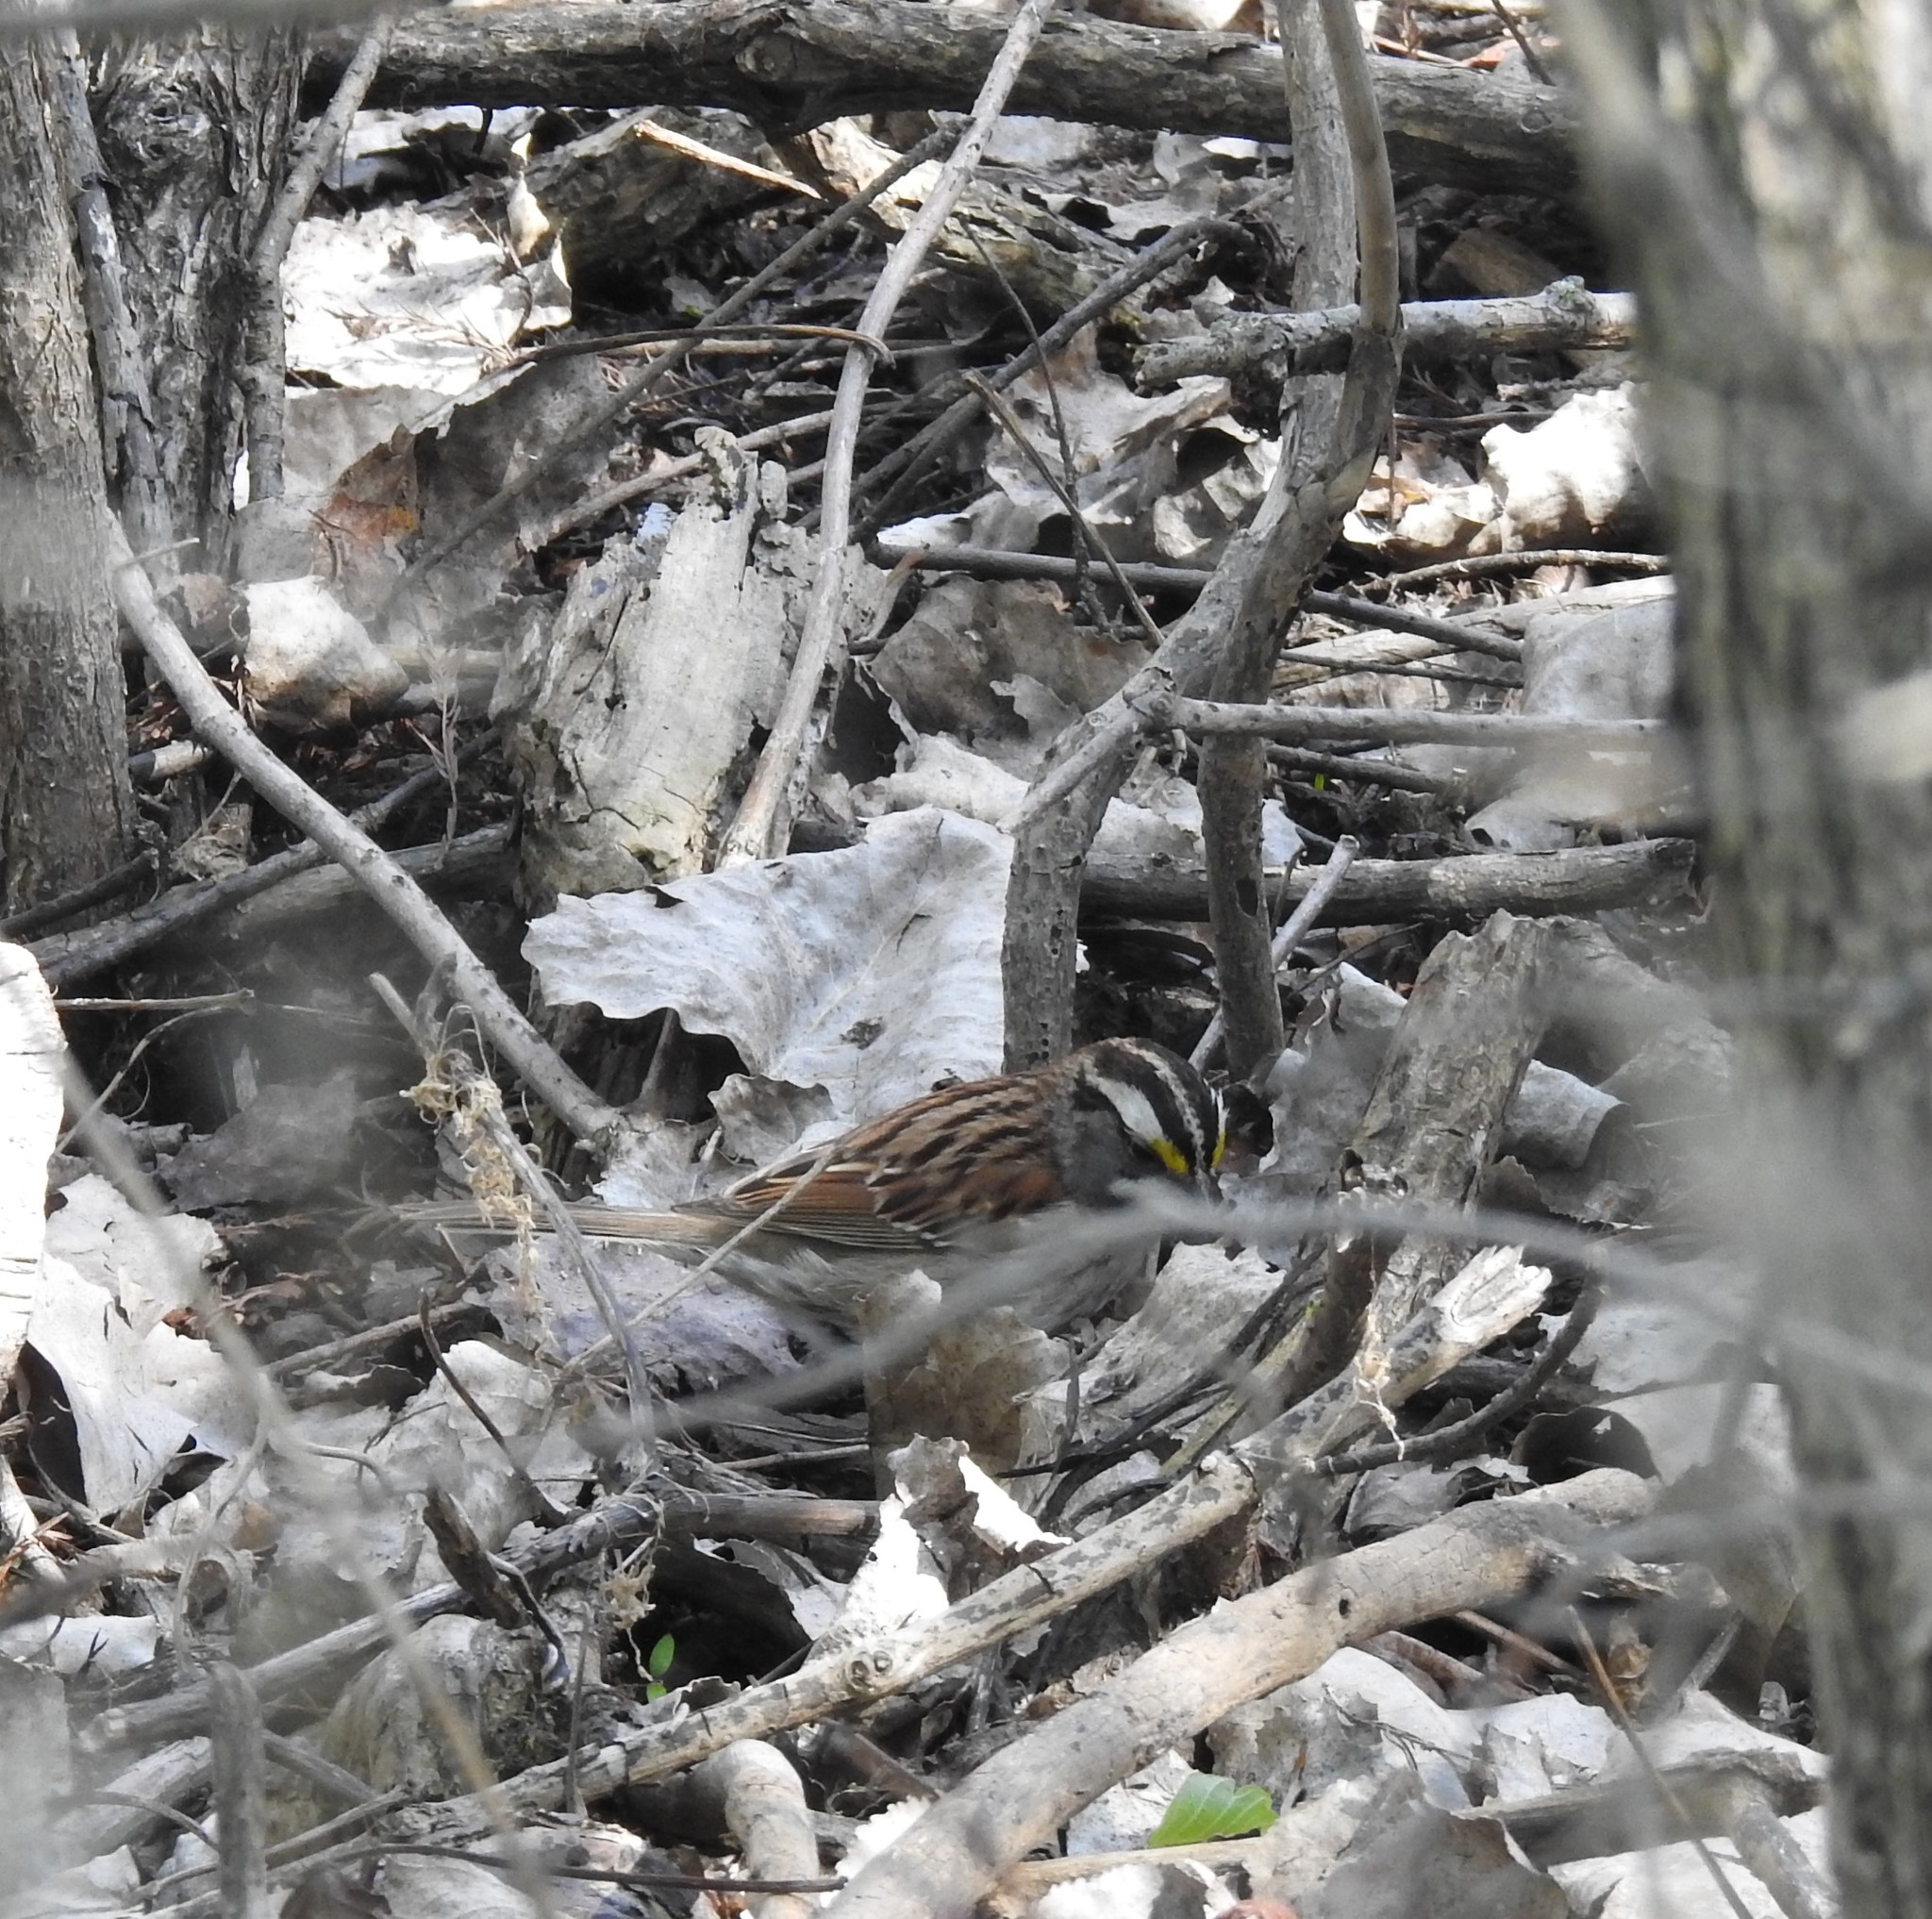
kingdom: Animalia
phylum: Chordata
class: Aves
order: Passeriformes
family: Passerellidae
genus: Zonotrichia
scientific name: Zonotrichia albicollis
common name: White-throated sparrow
